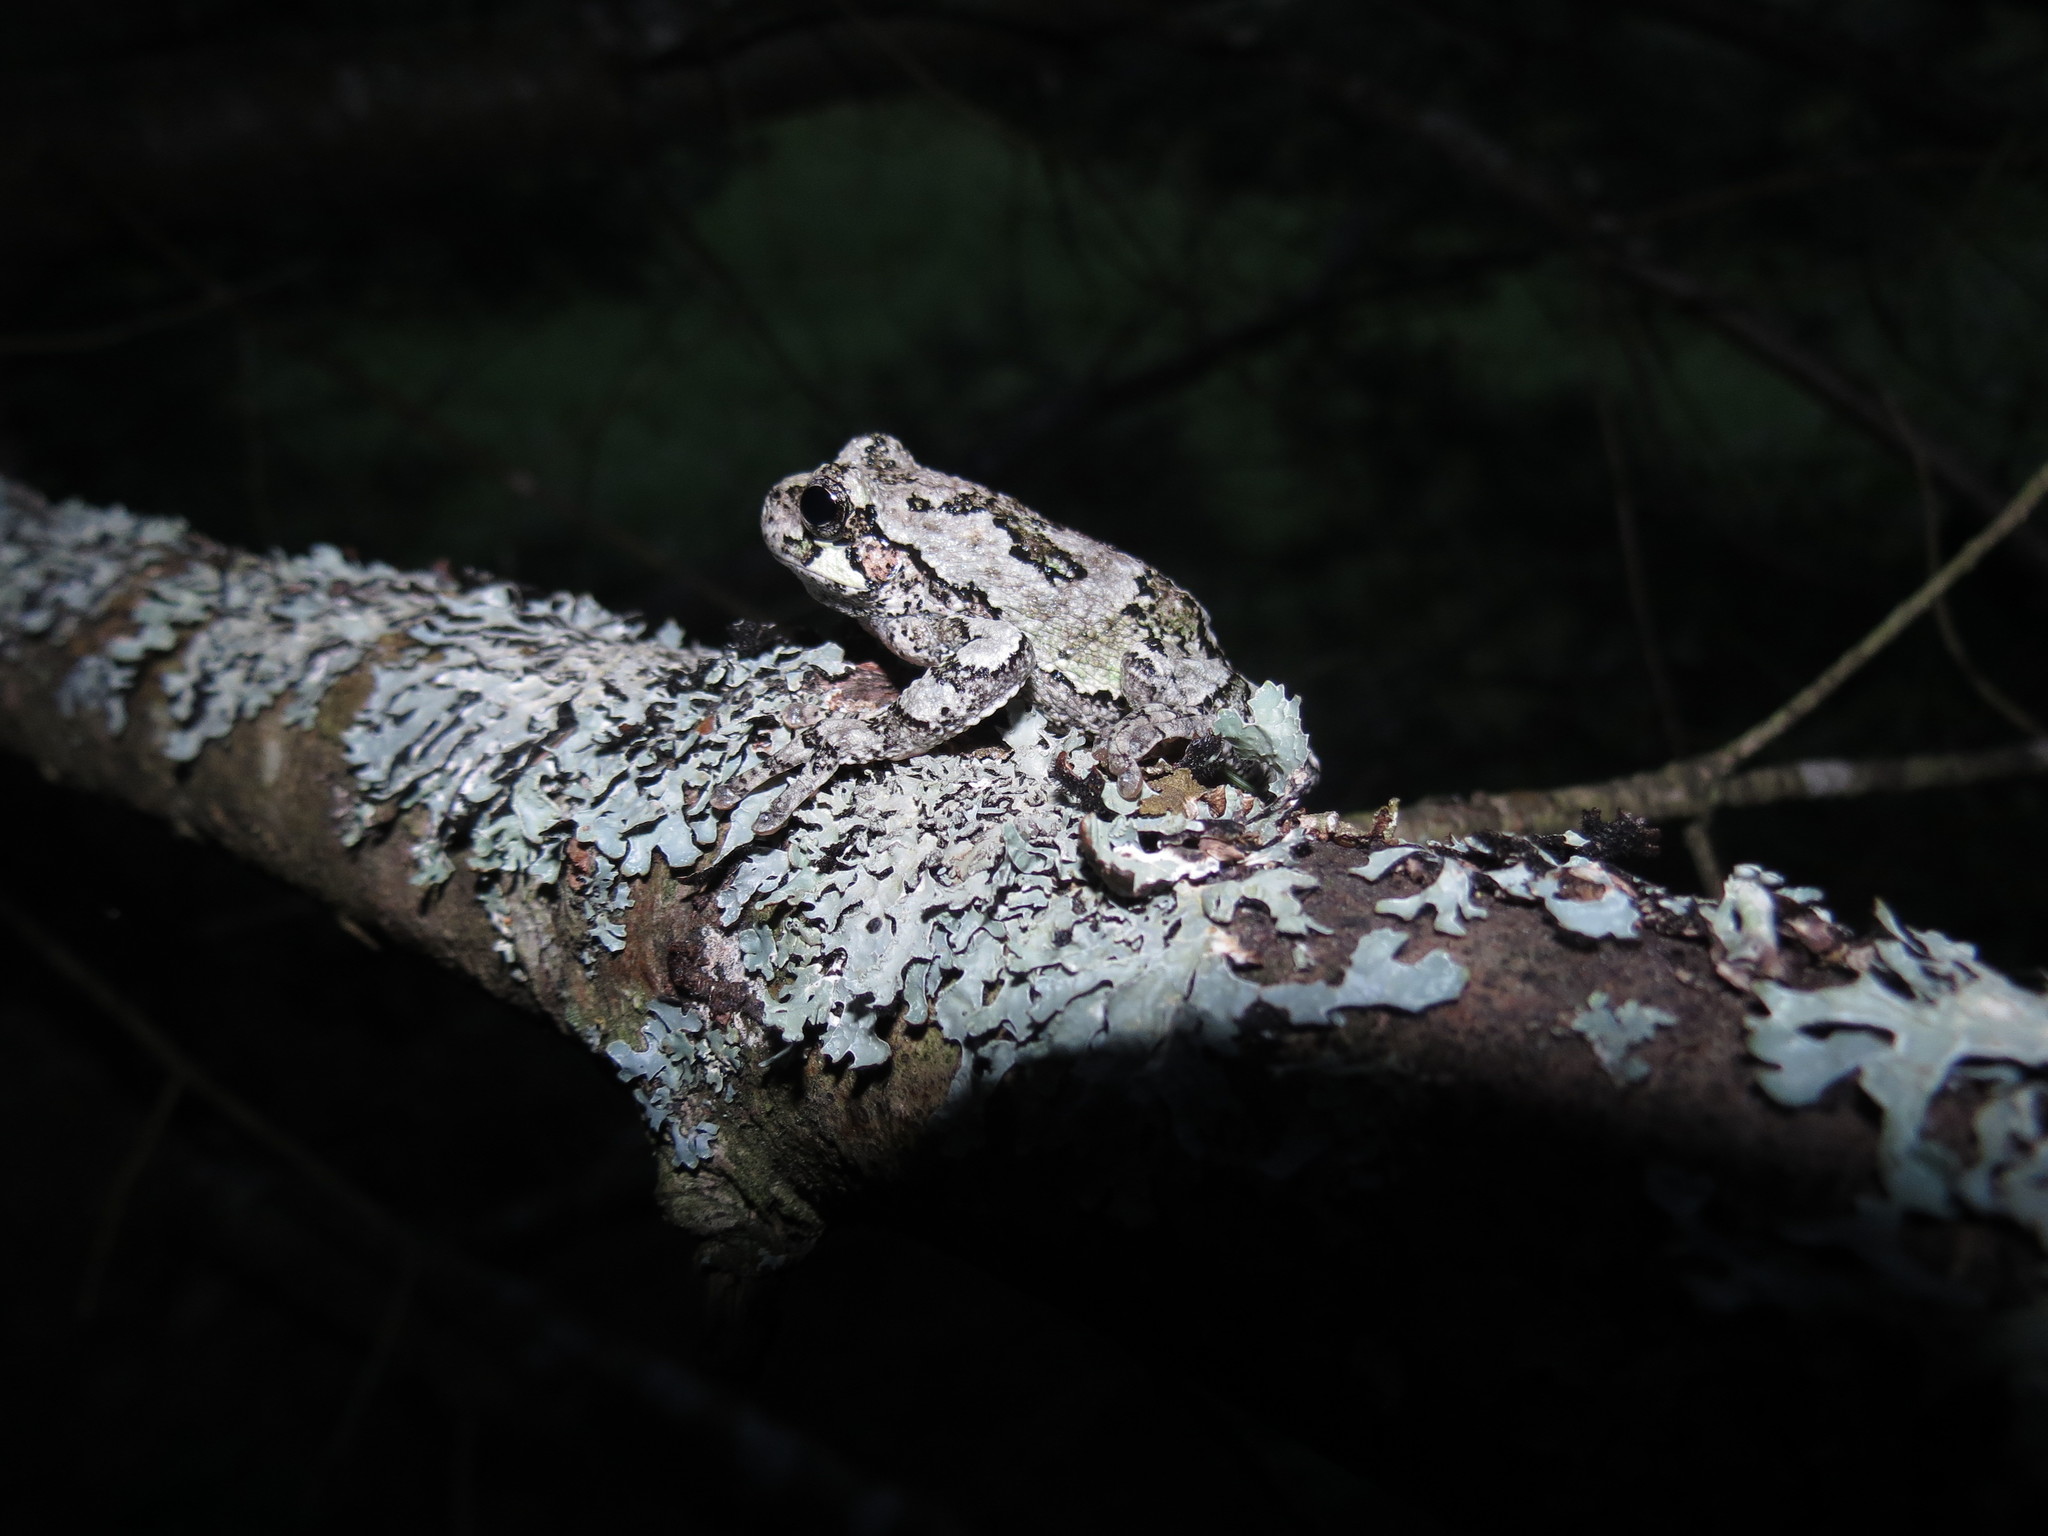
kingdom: Animalia
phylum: Chordata
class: Amphibia
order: Anura
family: Hylidae
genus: Dryophytes
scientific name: Dryophytes versicolor
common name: Gray treefrog
